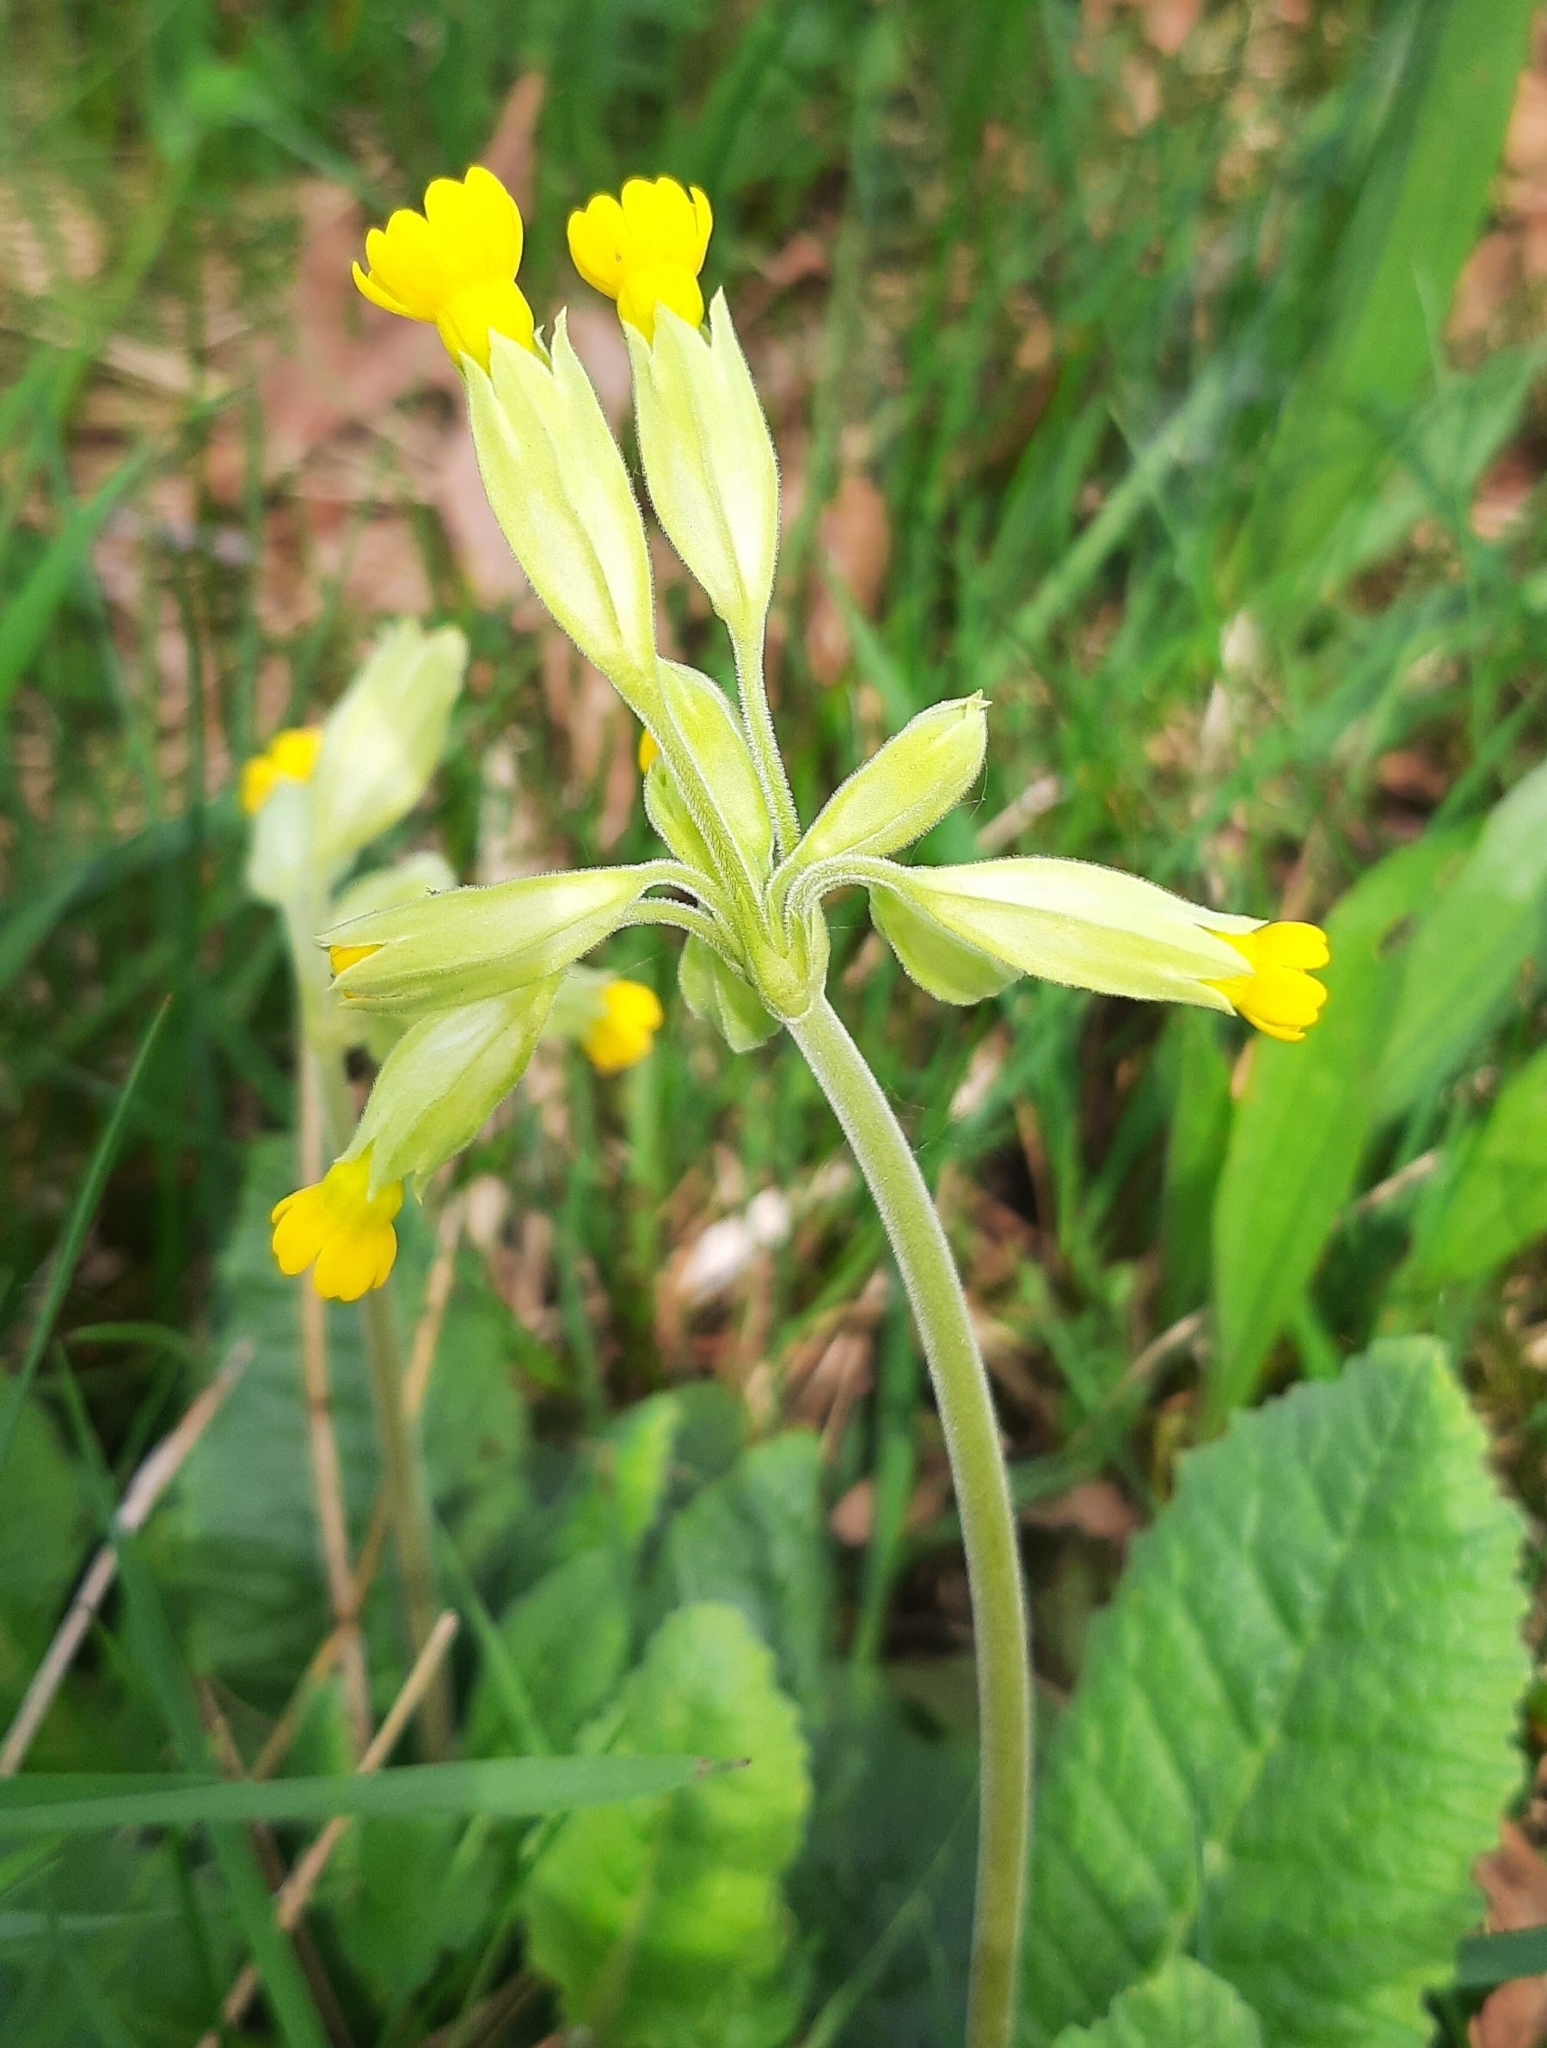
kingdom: Plantae
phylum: Tracheophyta
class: Magnoliopsida
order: Ericales
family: Primulaceae
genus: Primula
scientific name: Primula veris
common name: Cowslip
